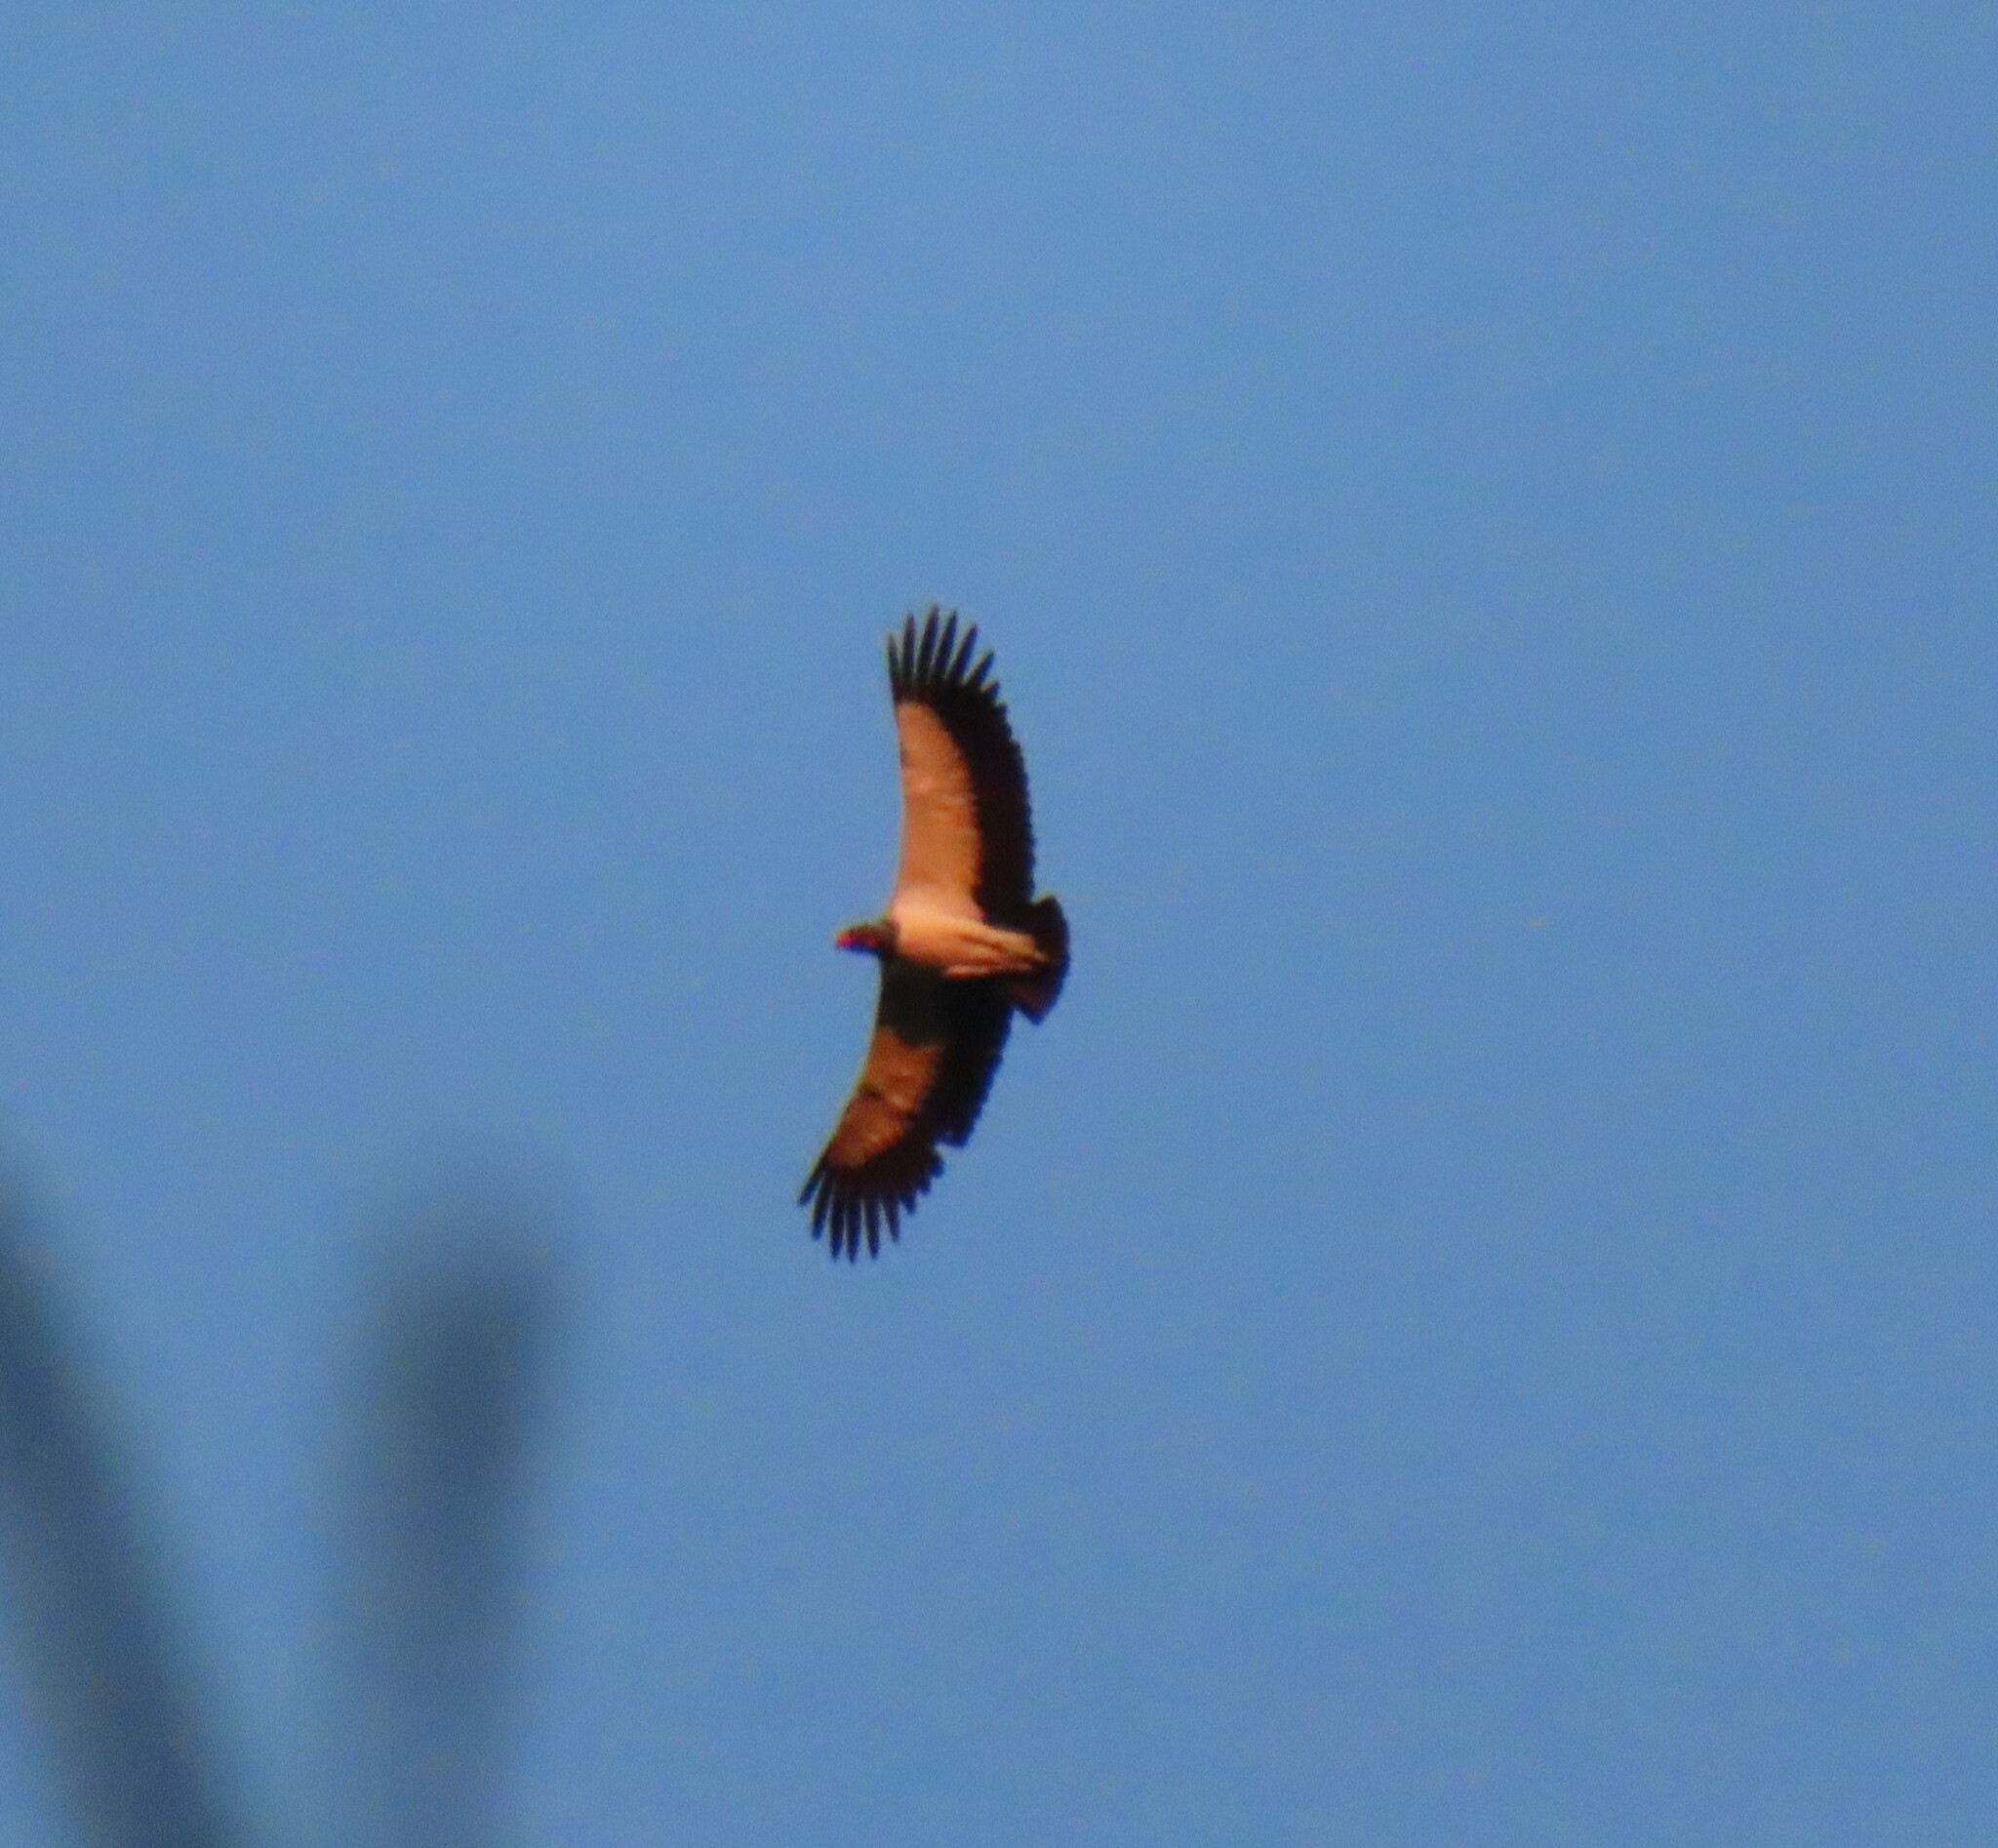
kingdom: Animalia
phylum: Chordata
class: Aves
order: Accipitriformes
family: Cathartidae
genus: Sarcoramphus
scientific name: Sarcoramphus papa
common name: King vulture
